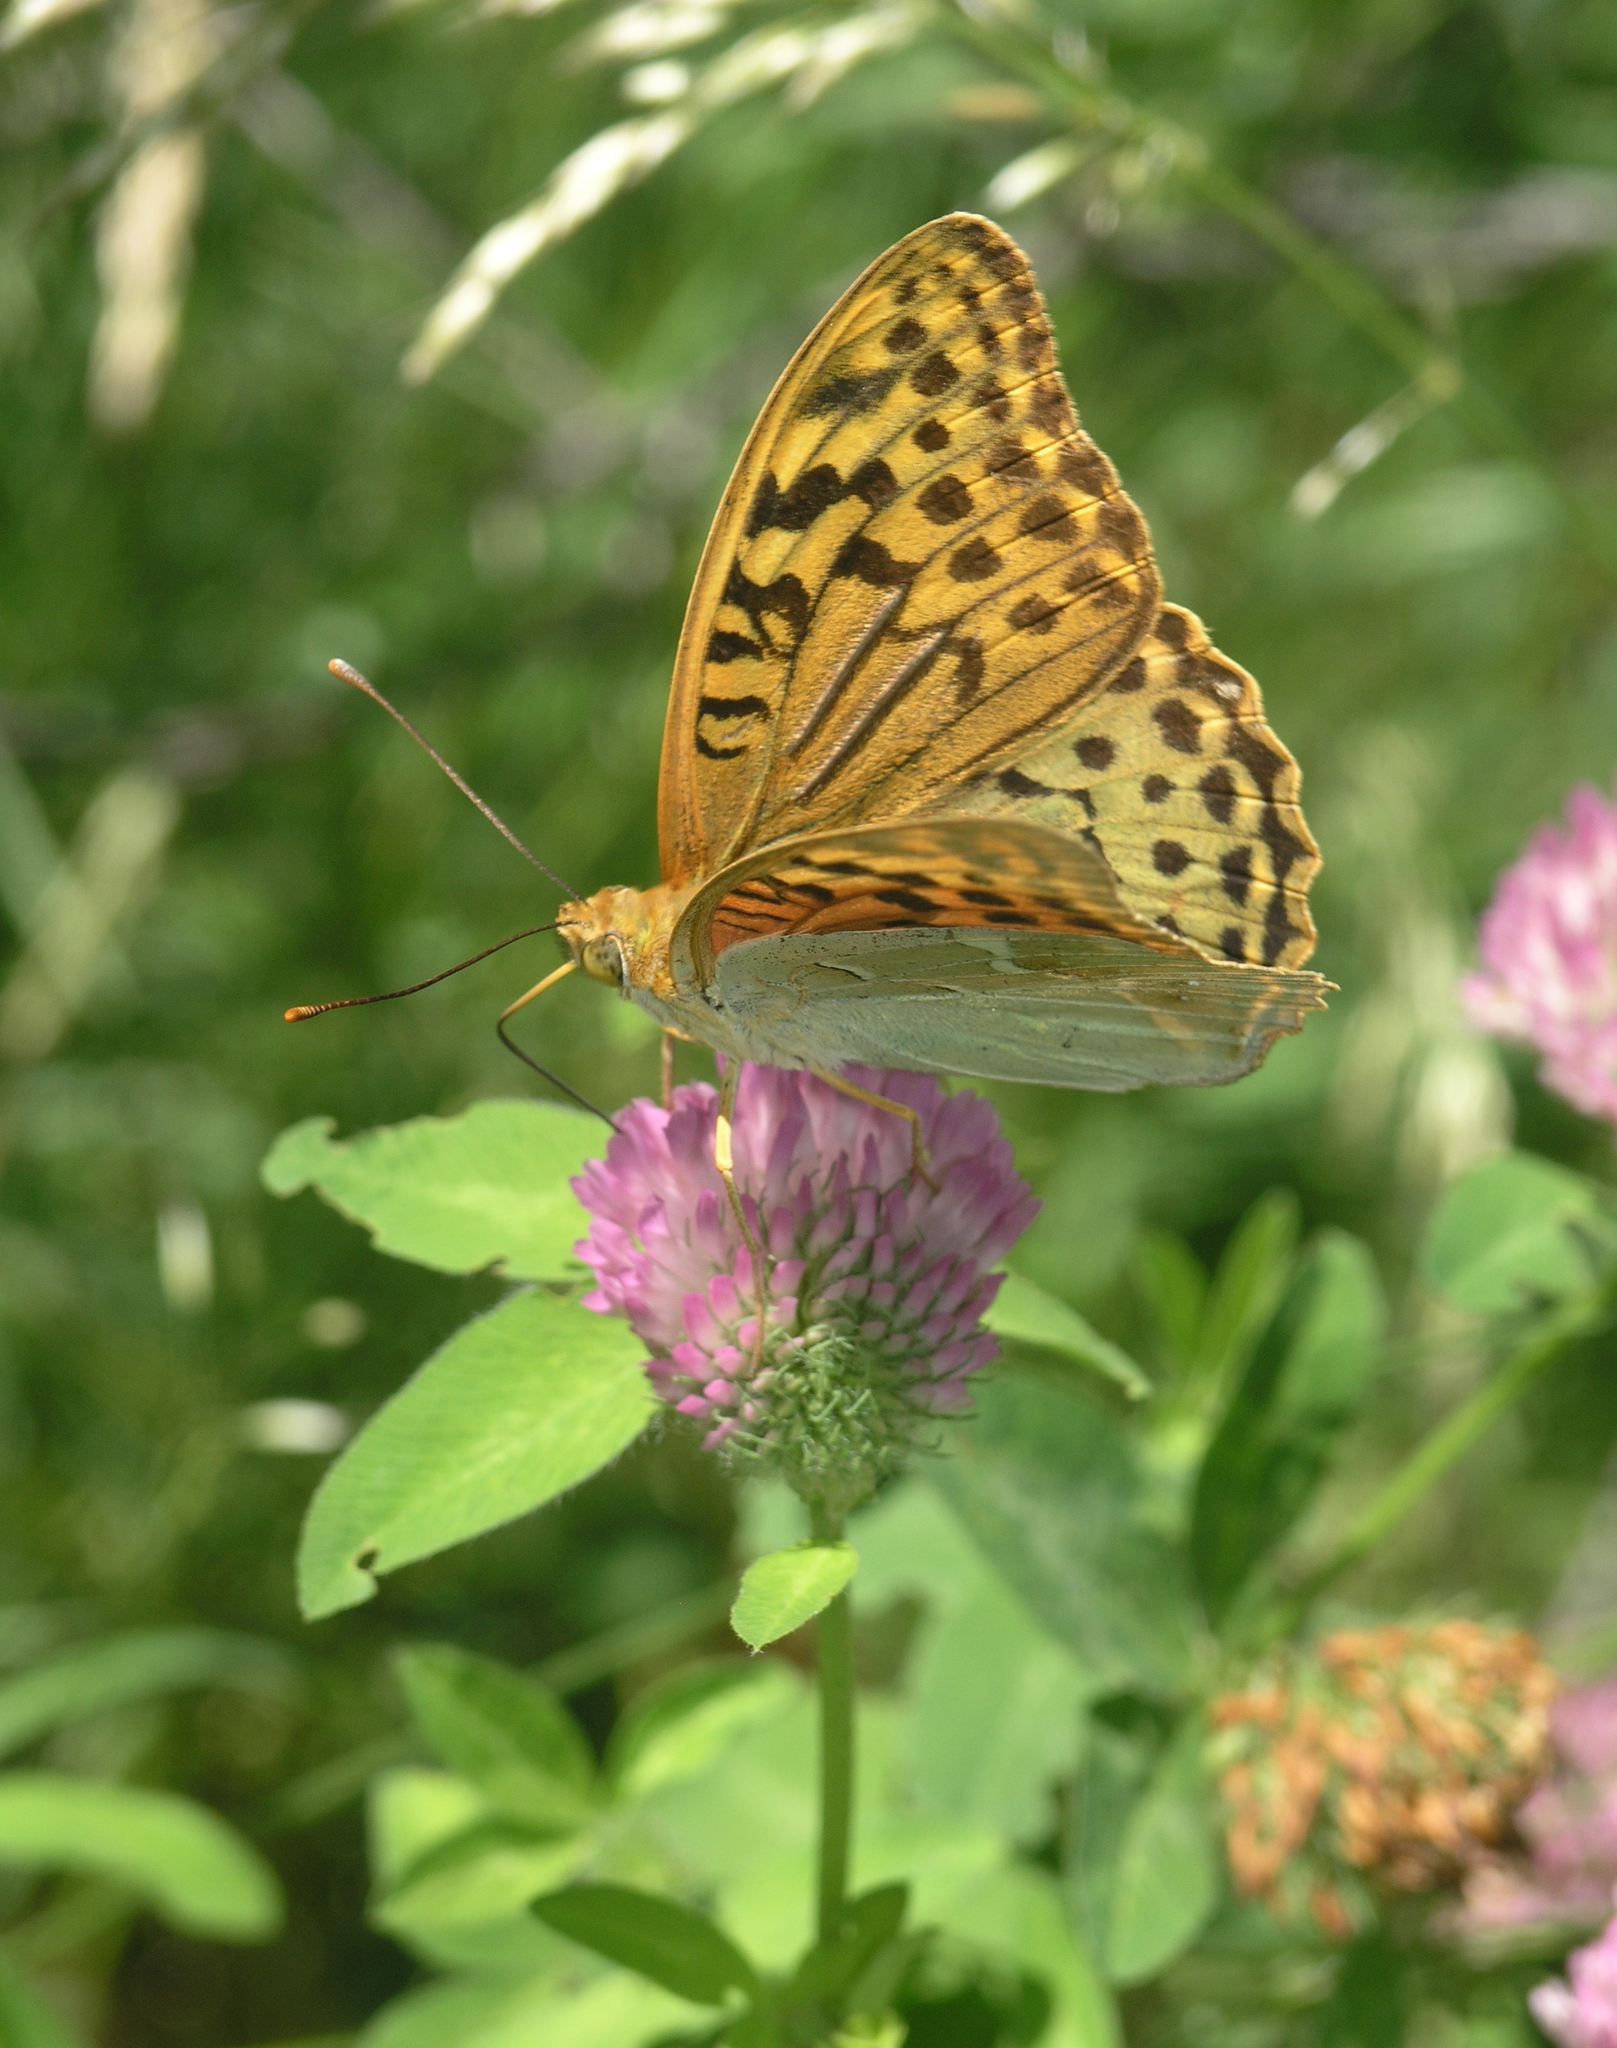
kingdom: Plantae
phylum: Tracheophyta
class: Magnoliopsida
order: Fabales
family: Fabaceae
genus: Trifolium
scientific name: Trifolium pratense
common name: Red clover
